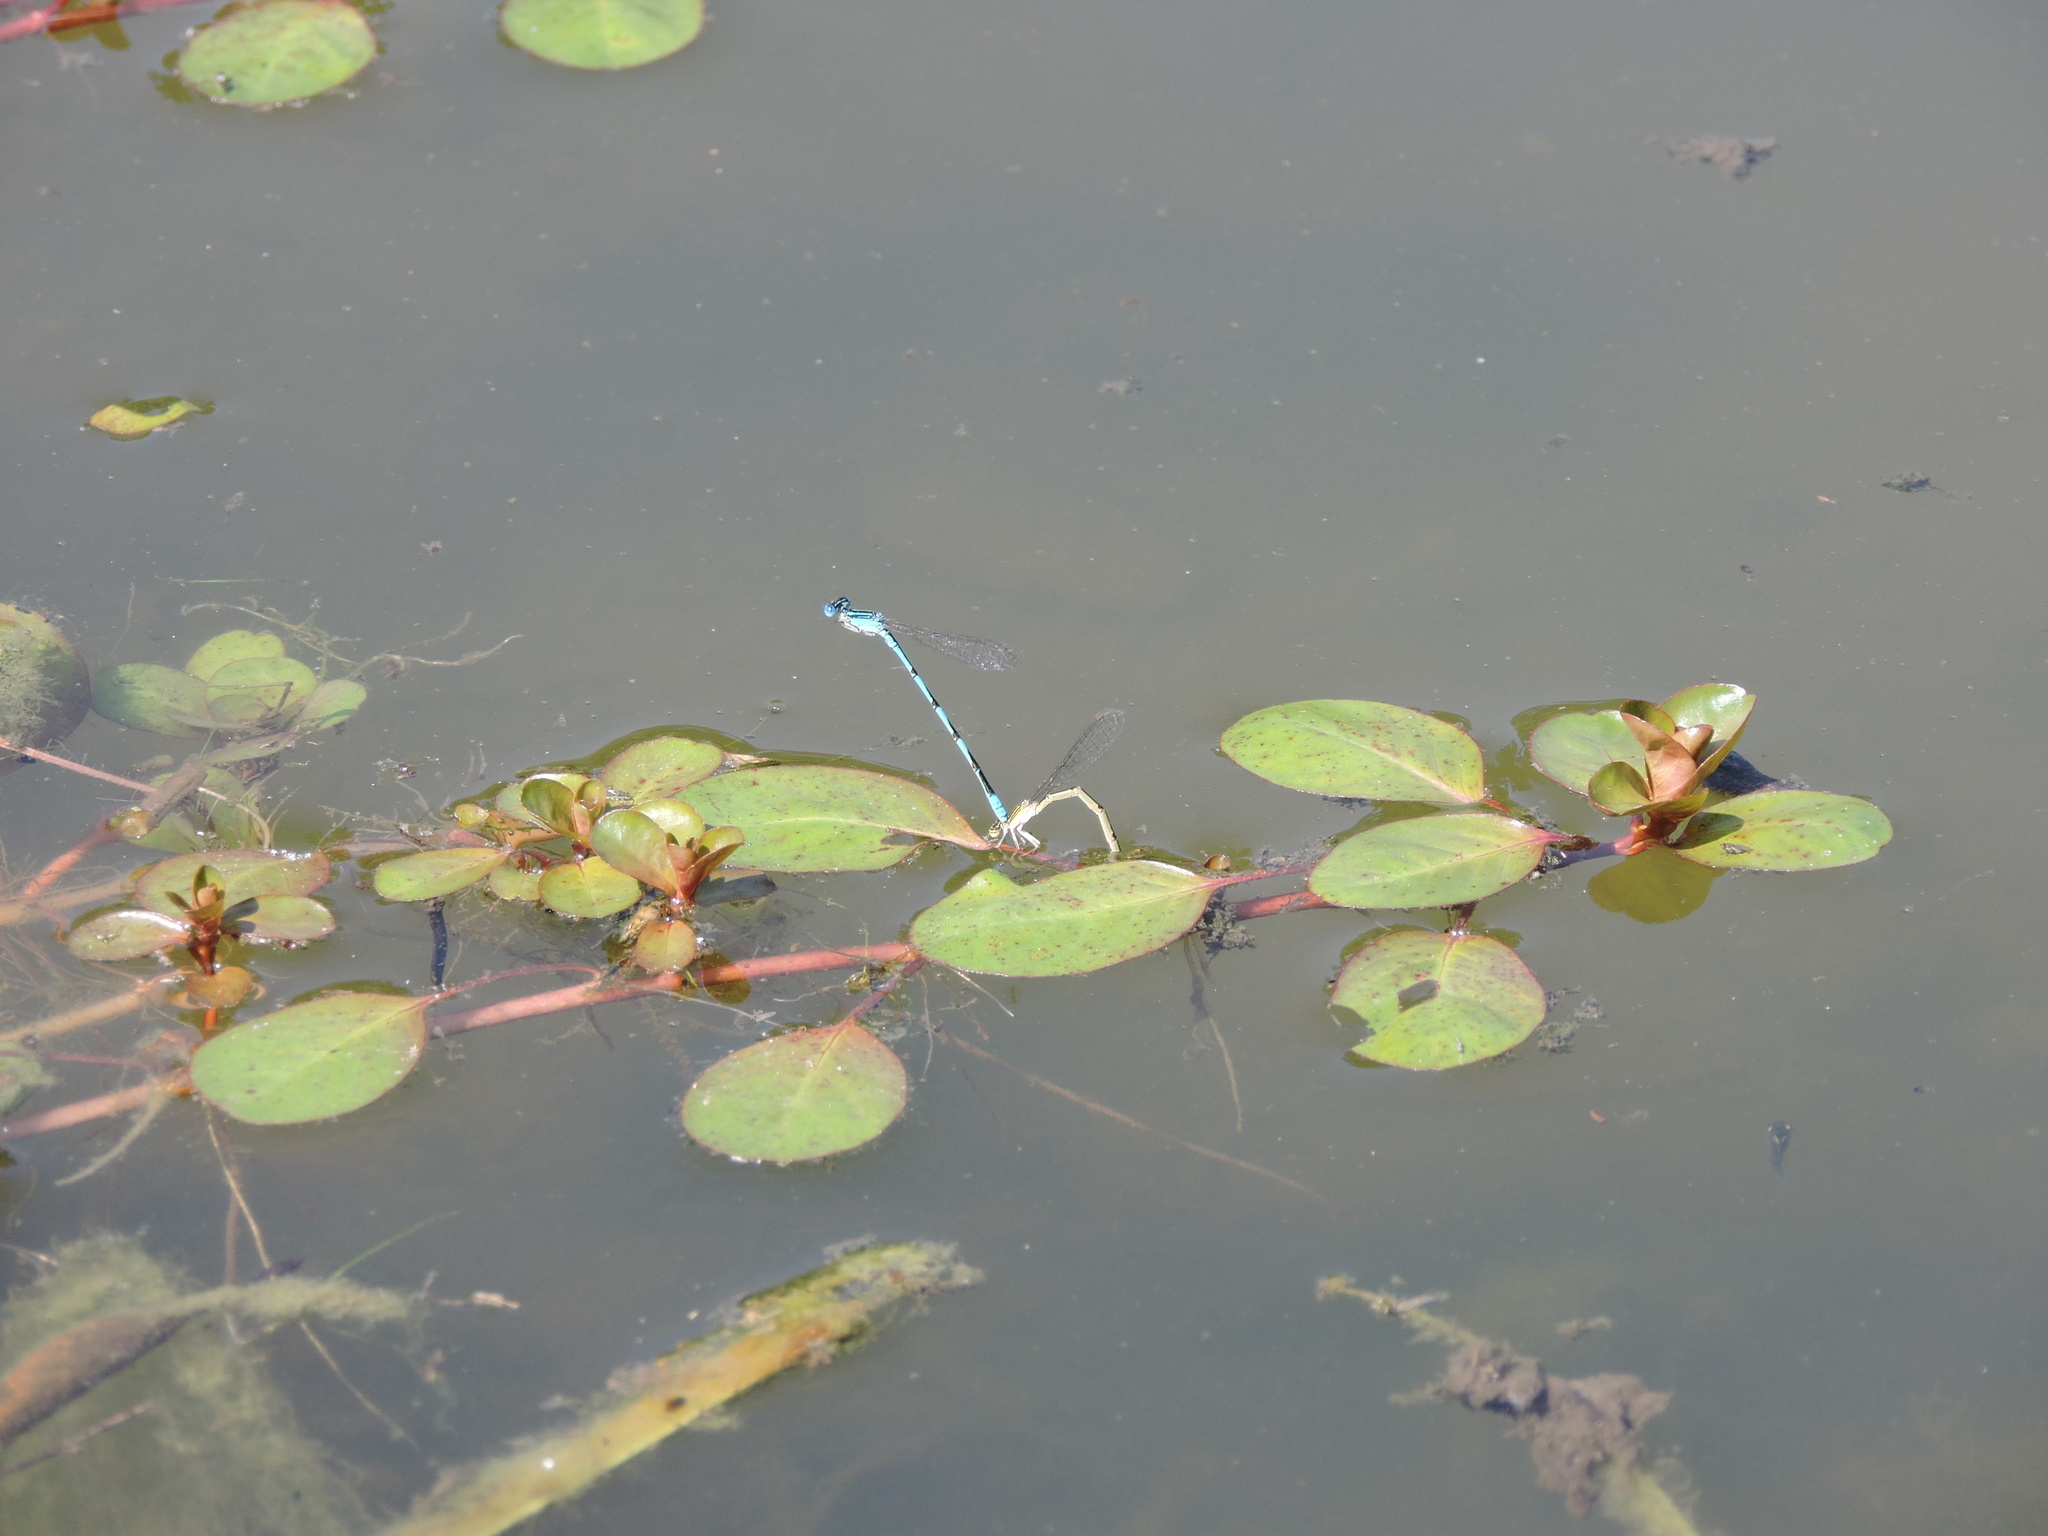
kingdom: Animalia
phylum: Arthropoda
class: Insecta
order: Odonata
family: Coenagrionidae
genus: Enallagma
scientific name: Enallagma basidens
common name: Double-striped bluet
